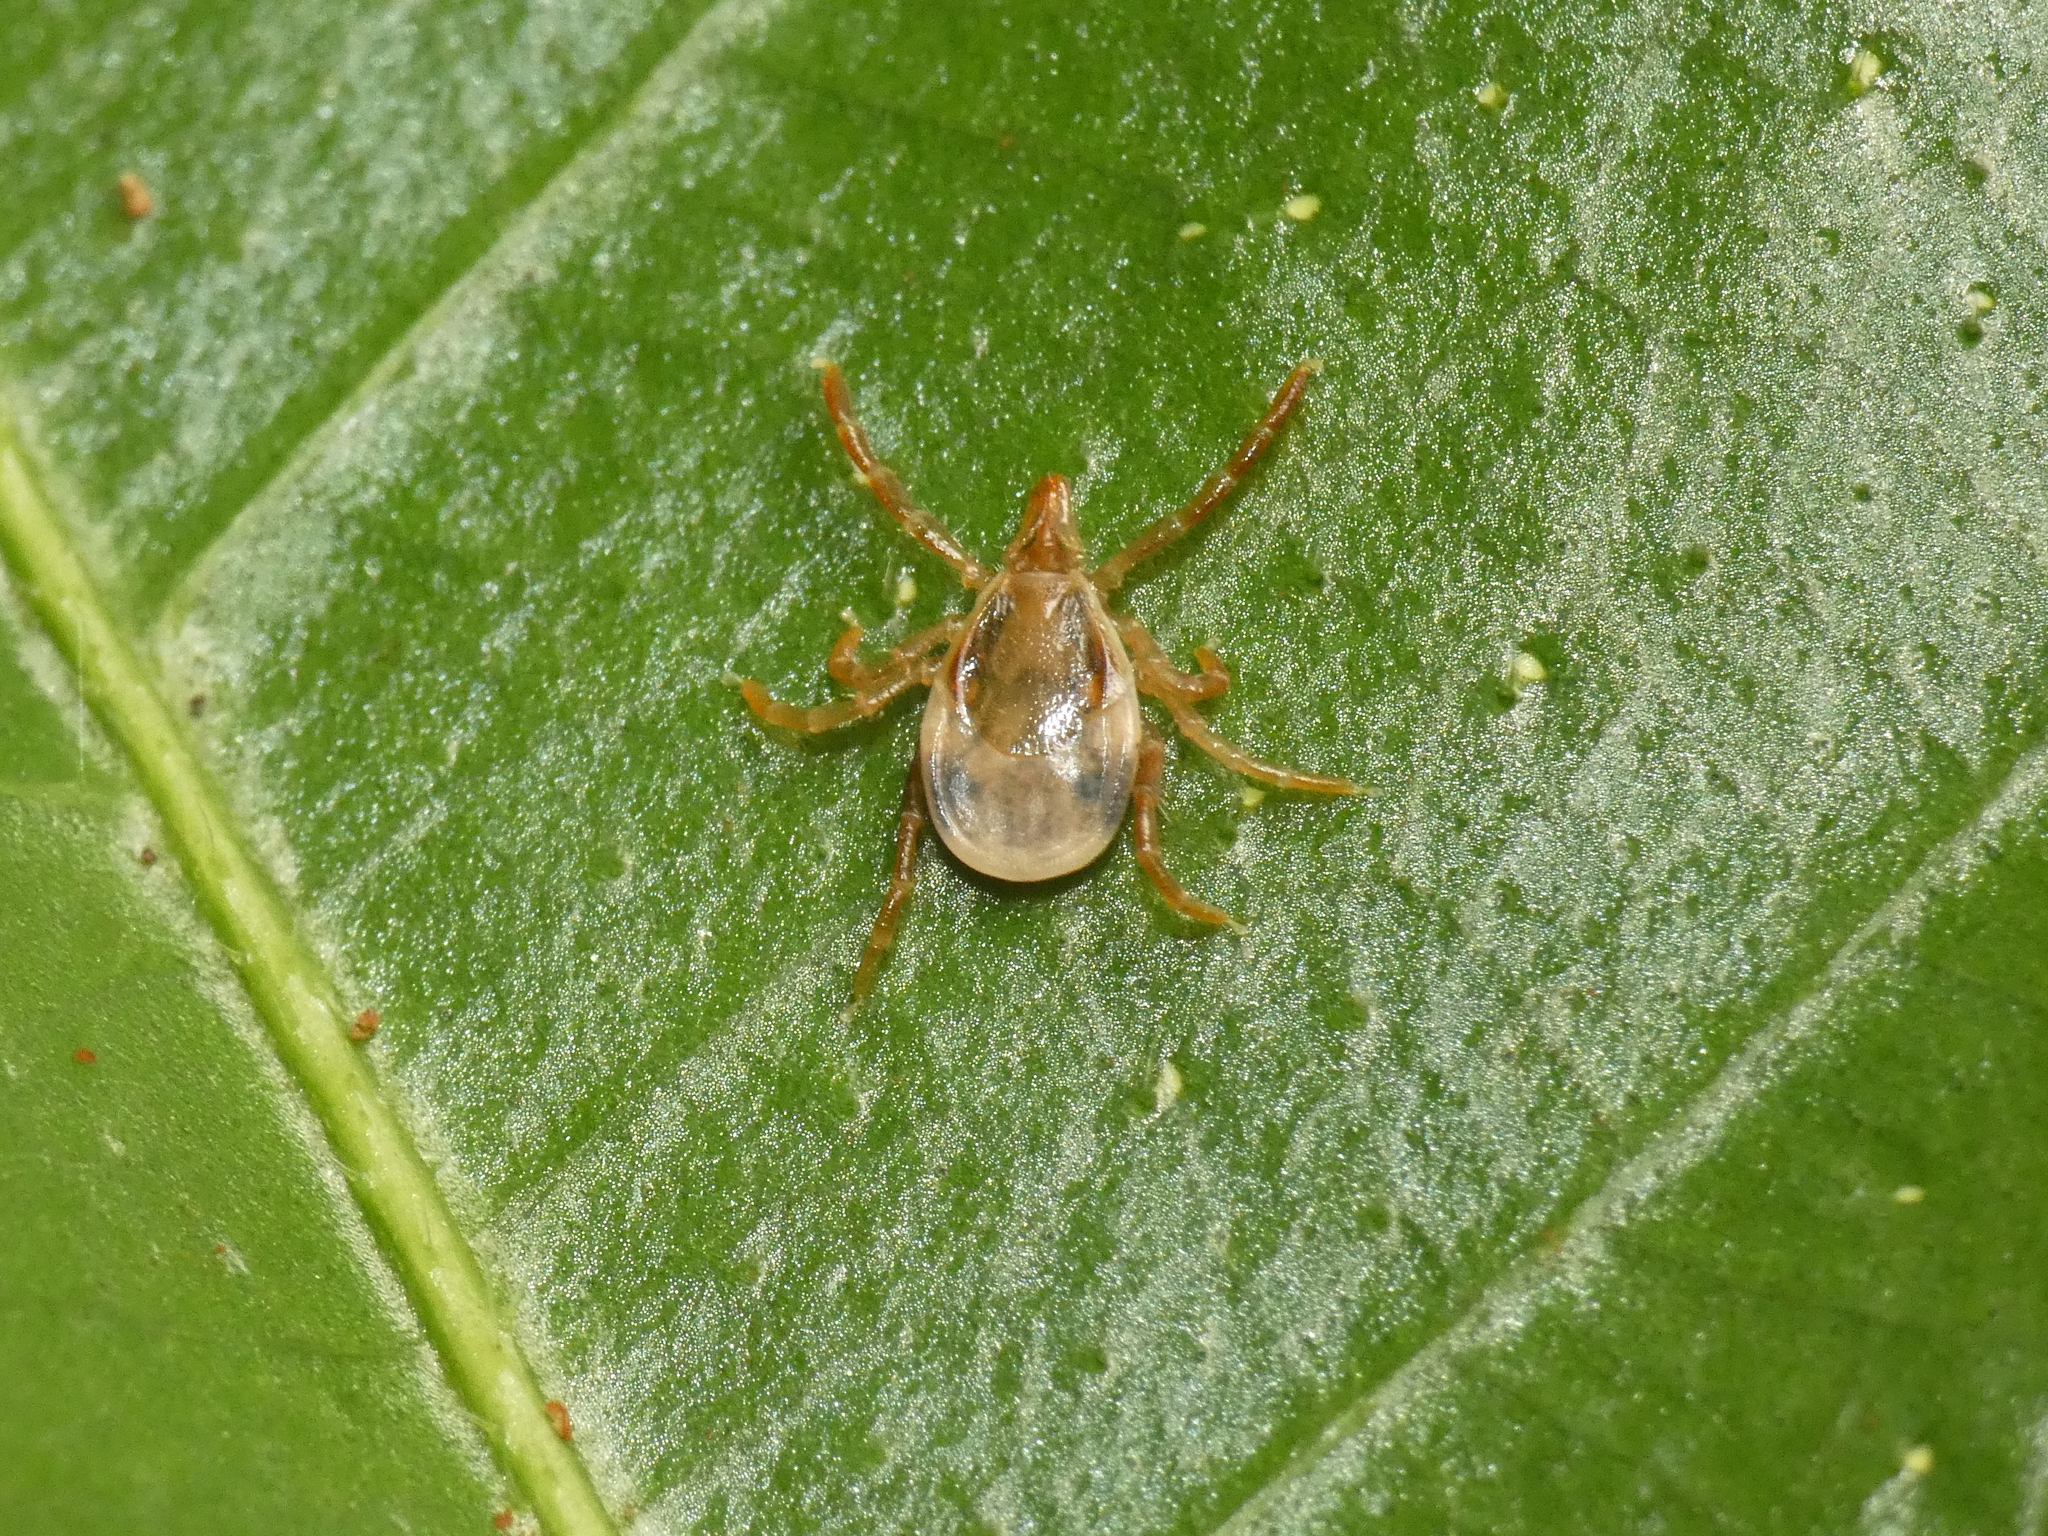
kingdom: Animalia
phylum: Arthropoda
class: Arachnida
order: Ixodida
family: Ixodidae
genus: Ixodes
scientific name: Ixodes holocyclus
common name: Australian paralysis tick
